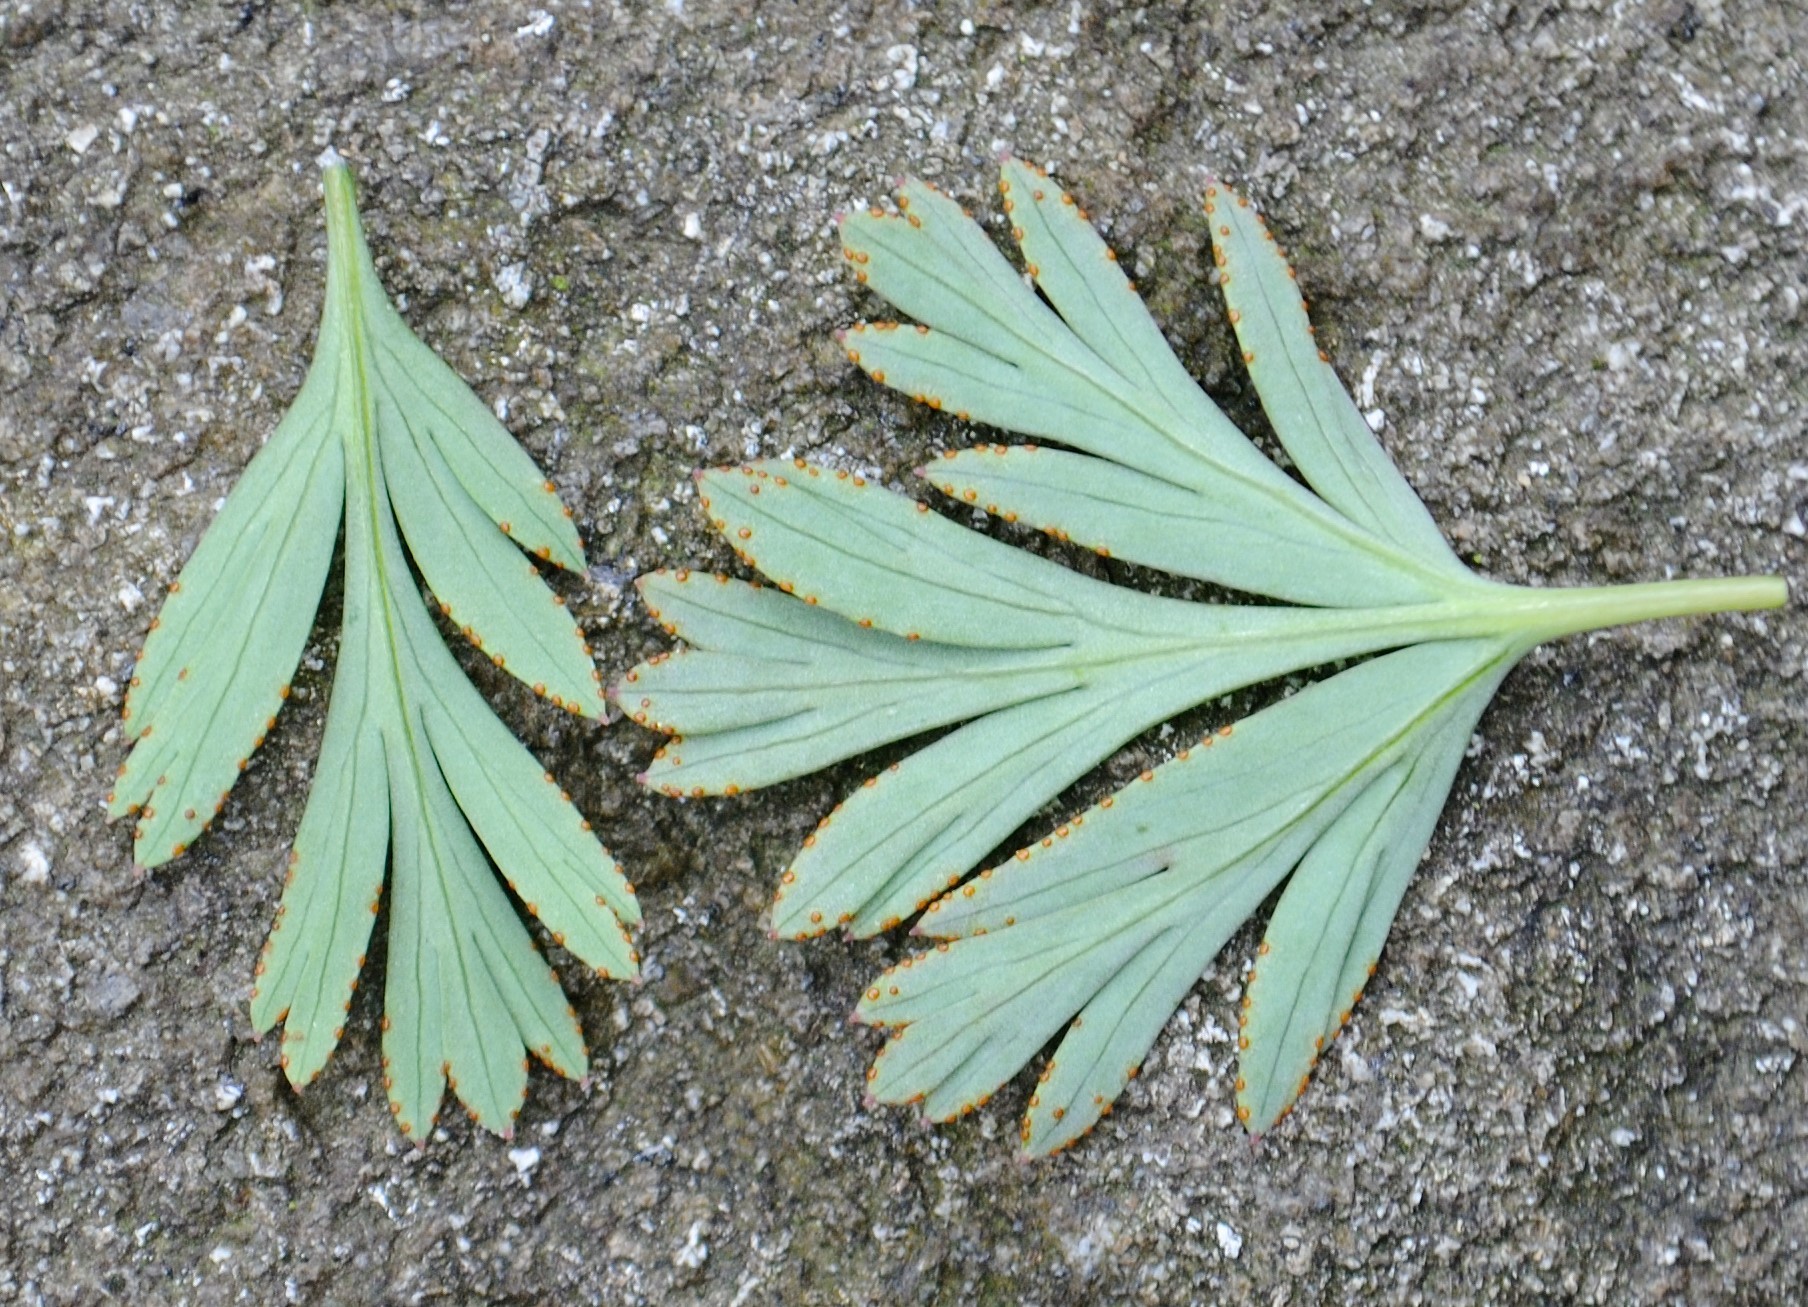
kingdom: Fungi
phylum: Basidiomycota
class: Pucciniomycetes
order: Pucciniales
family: Chaconiaceae
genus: Aplopsora
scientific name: Aplopsora dicentrae
